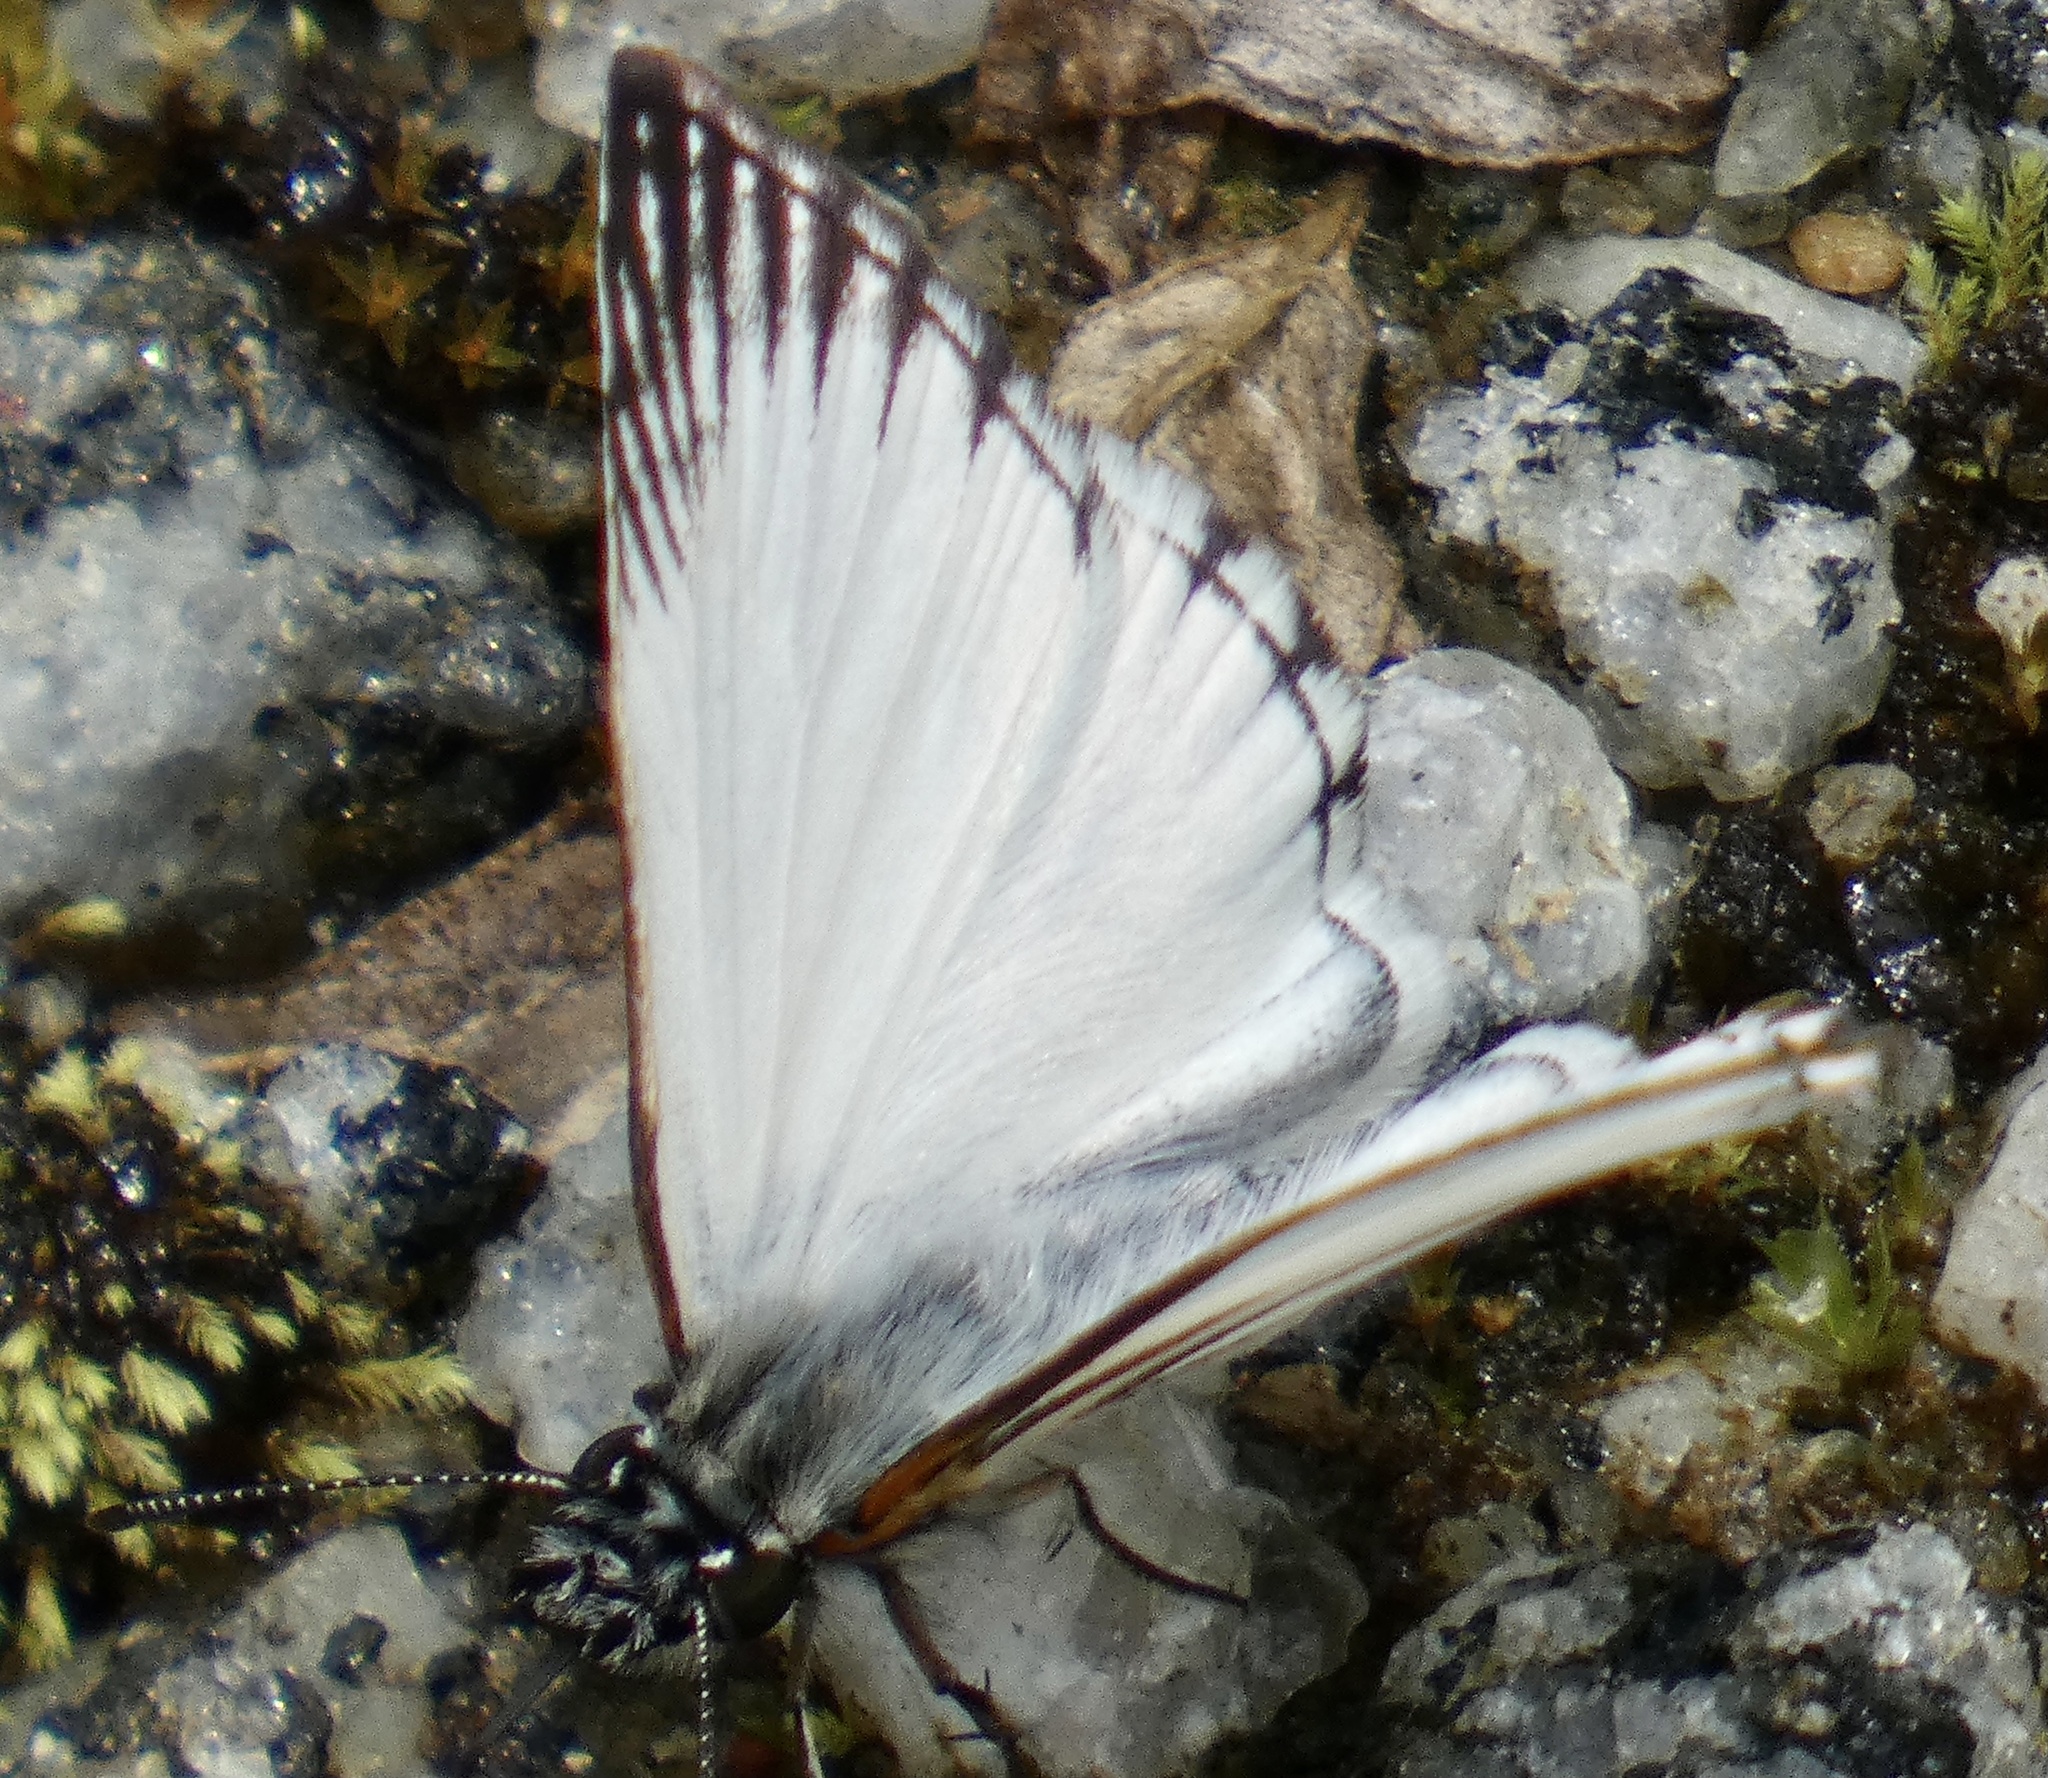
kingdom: Animalia
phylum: Arthropoda
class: Insecta
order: Lepidoptera
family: Hesperiidae
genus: Heliopetes
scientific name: Heliopetes arsalte
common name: Veined white-skipper
